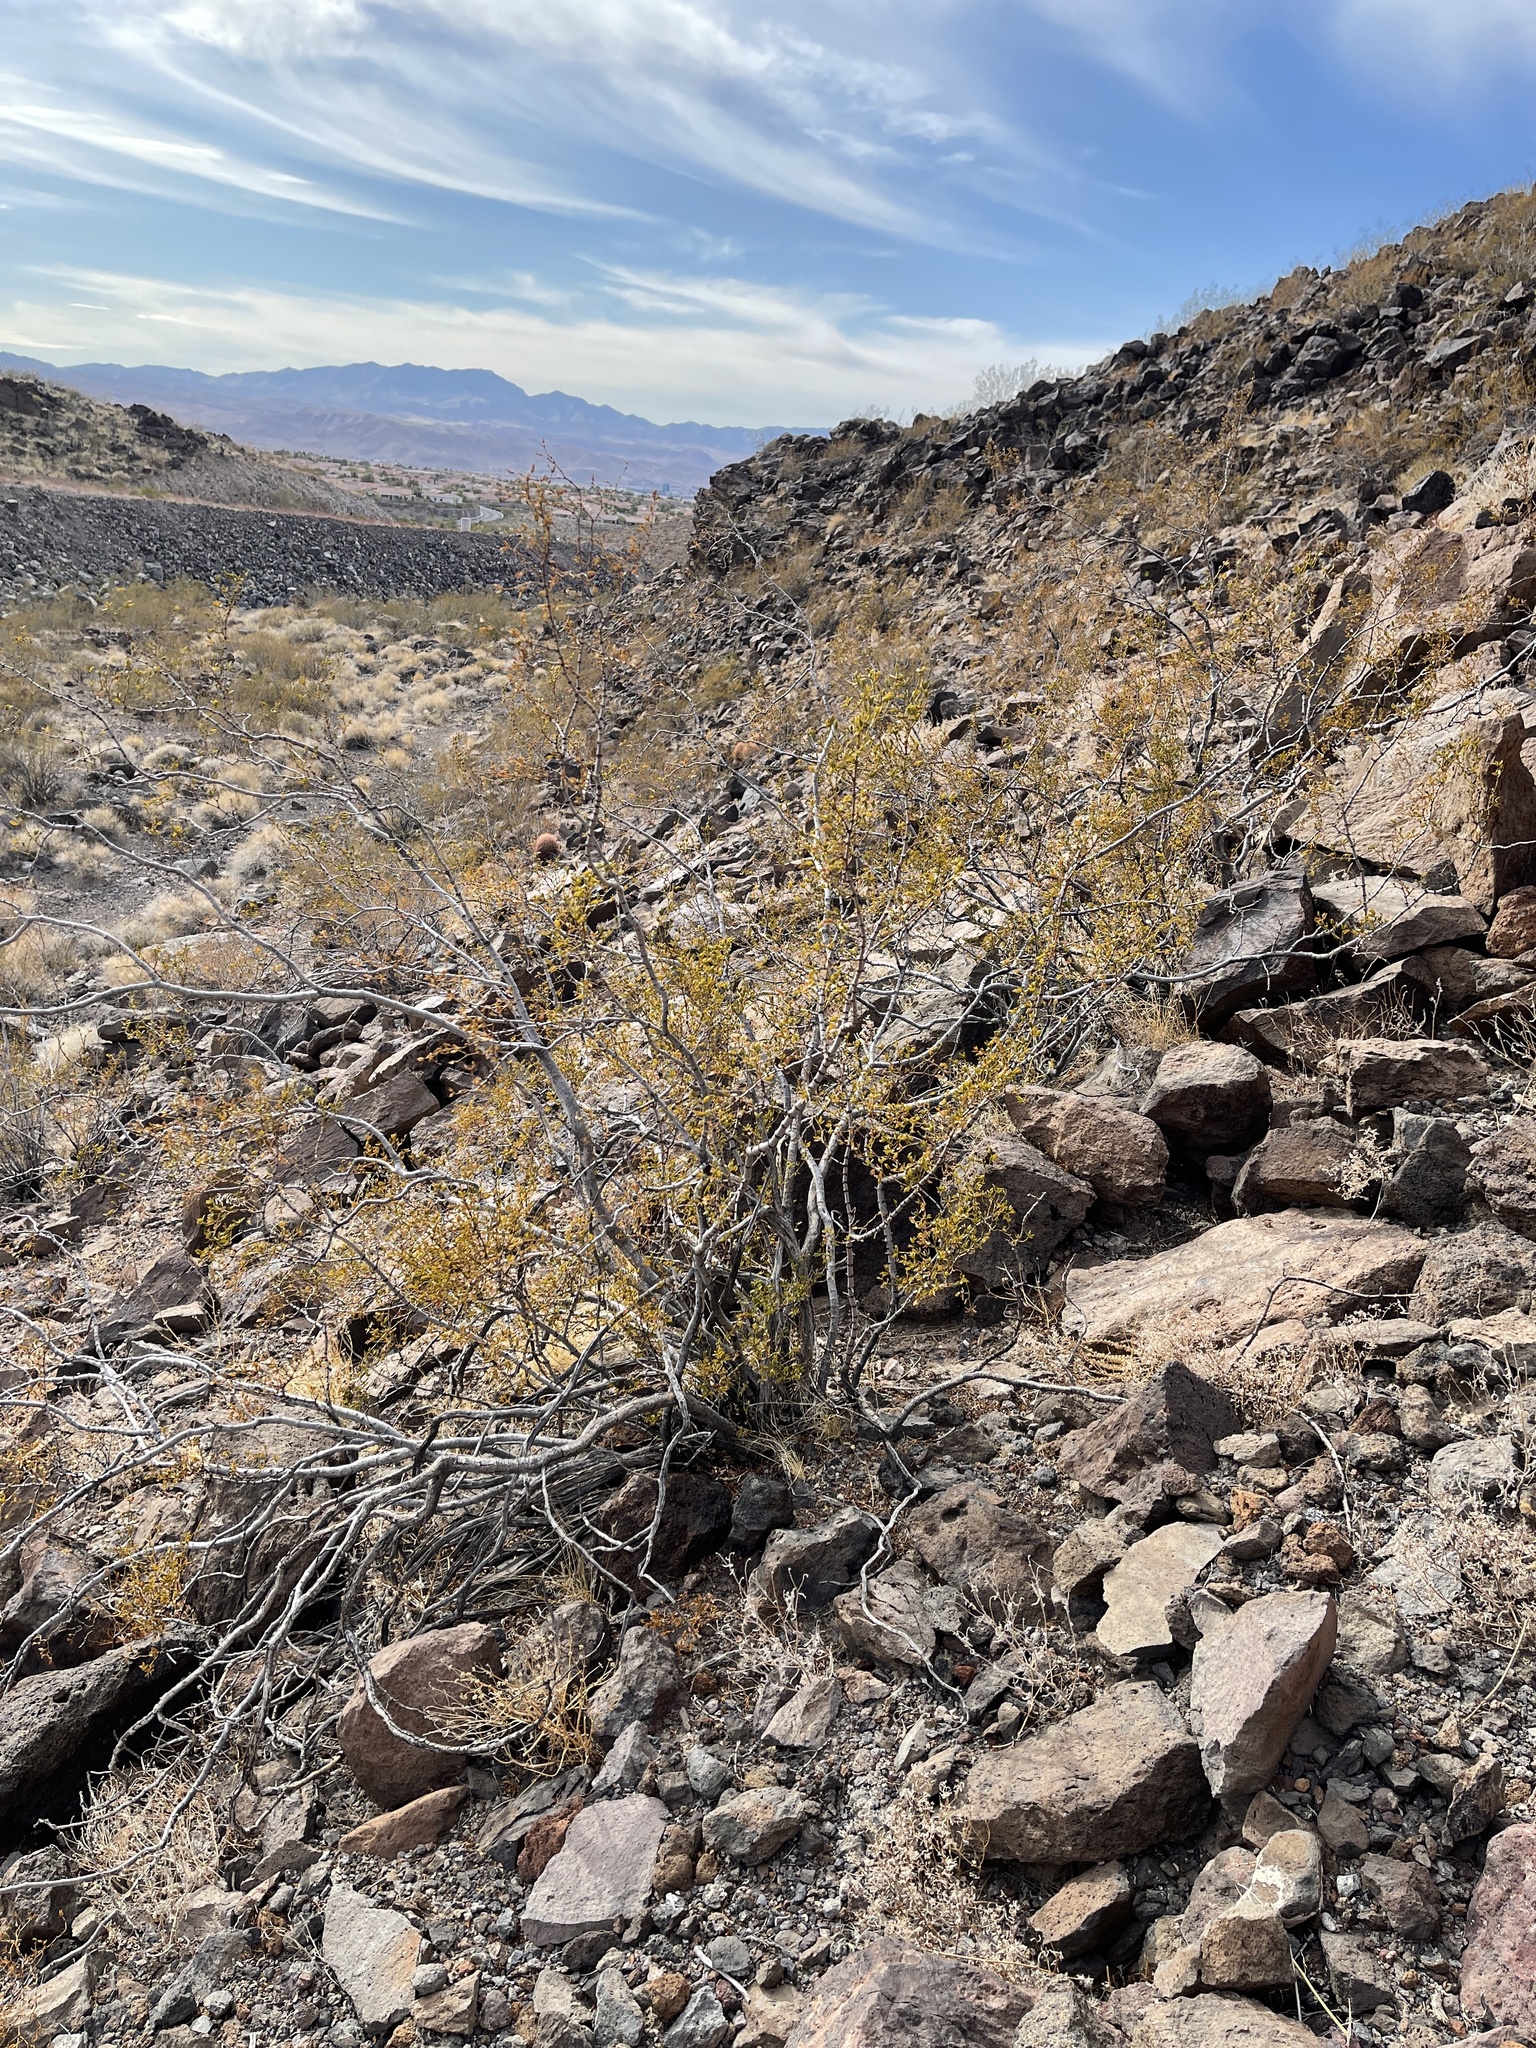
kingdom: Plantae
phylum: Tracheophyta
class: Magnoliopsida
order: Zygophyllales
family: Zygophyllaceae
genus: Larrea
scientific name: Larrea tridentata
